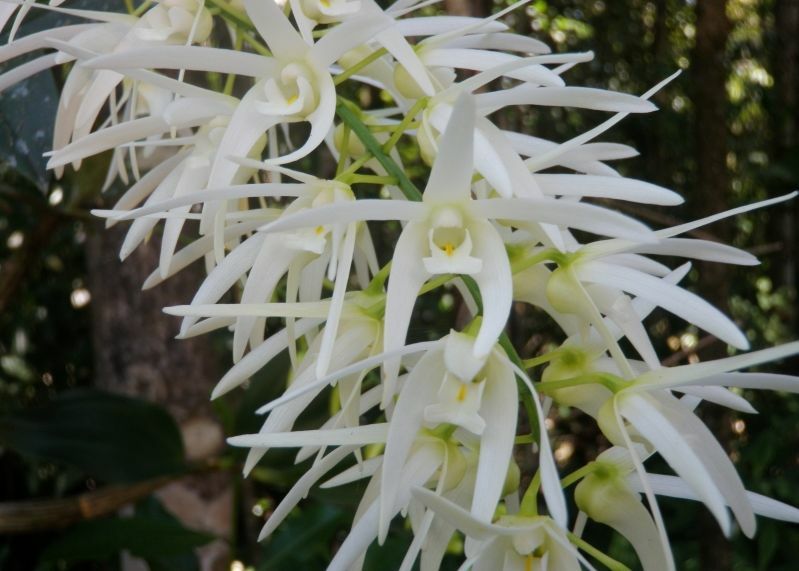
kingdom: Plantae
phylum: Tracheophyta
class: Liliopsida
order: Asparagales
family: Orchidaceae
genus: Dendrobium
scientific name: Dendrobium jonesii
